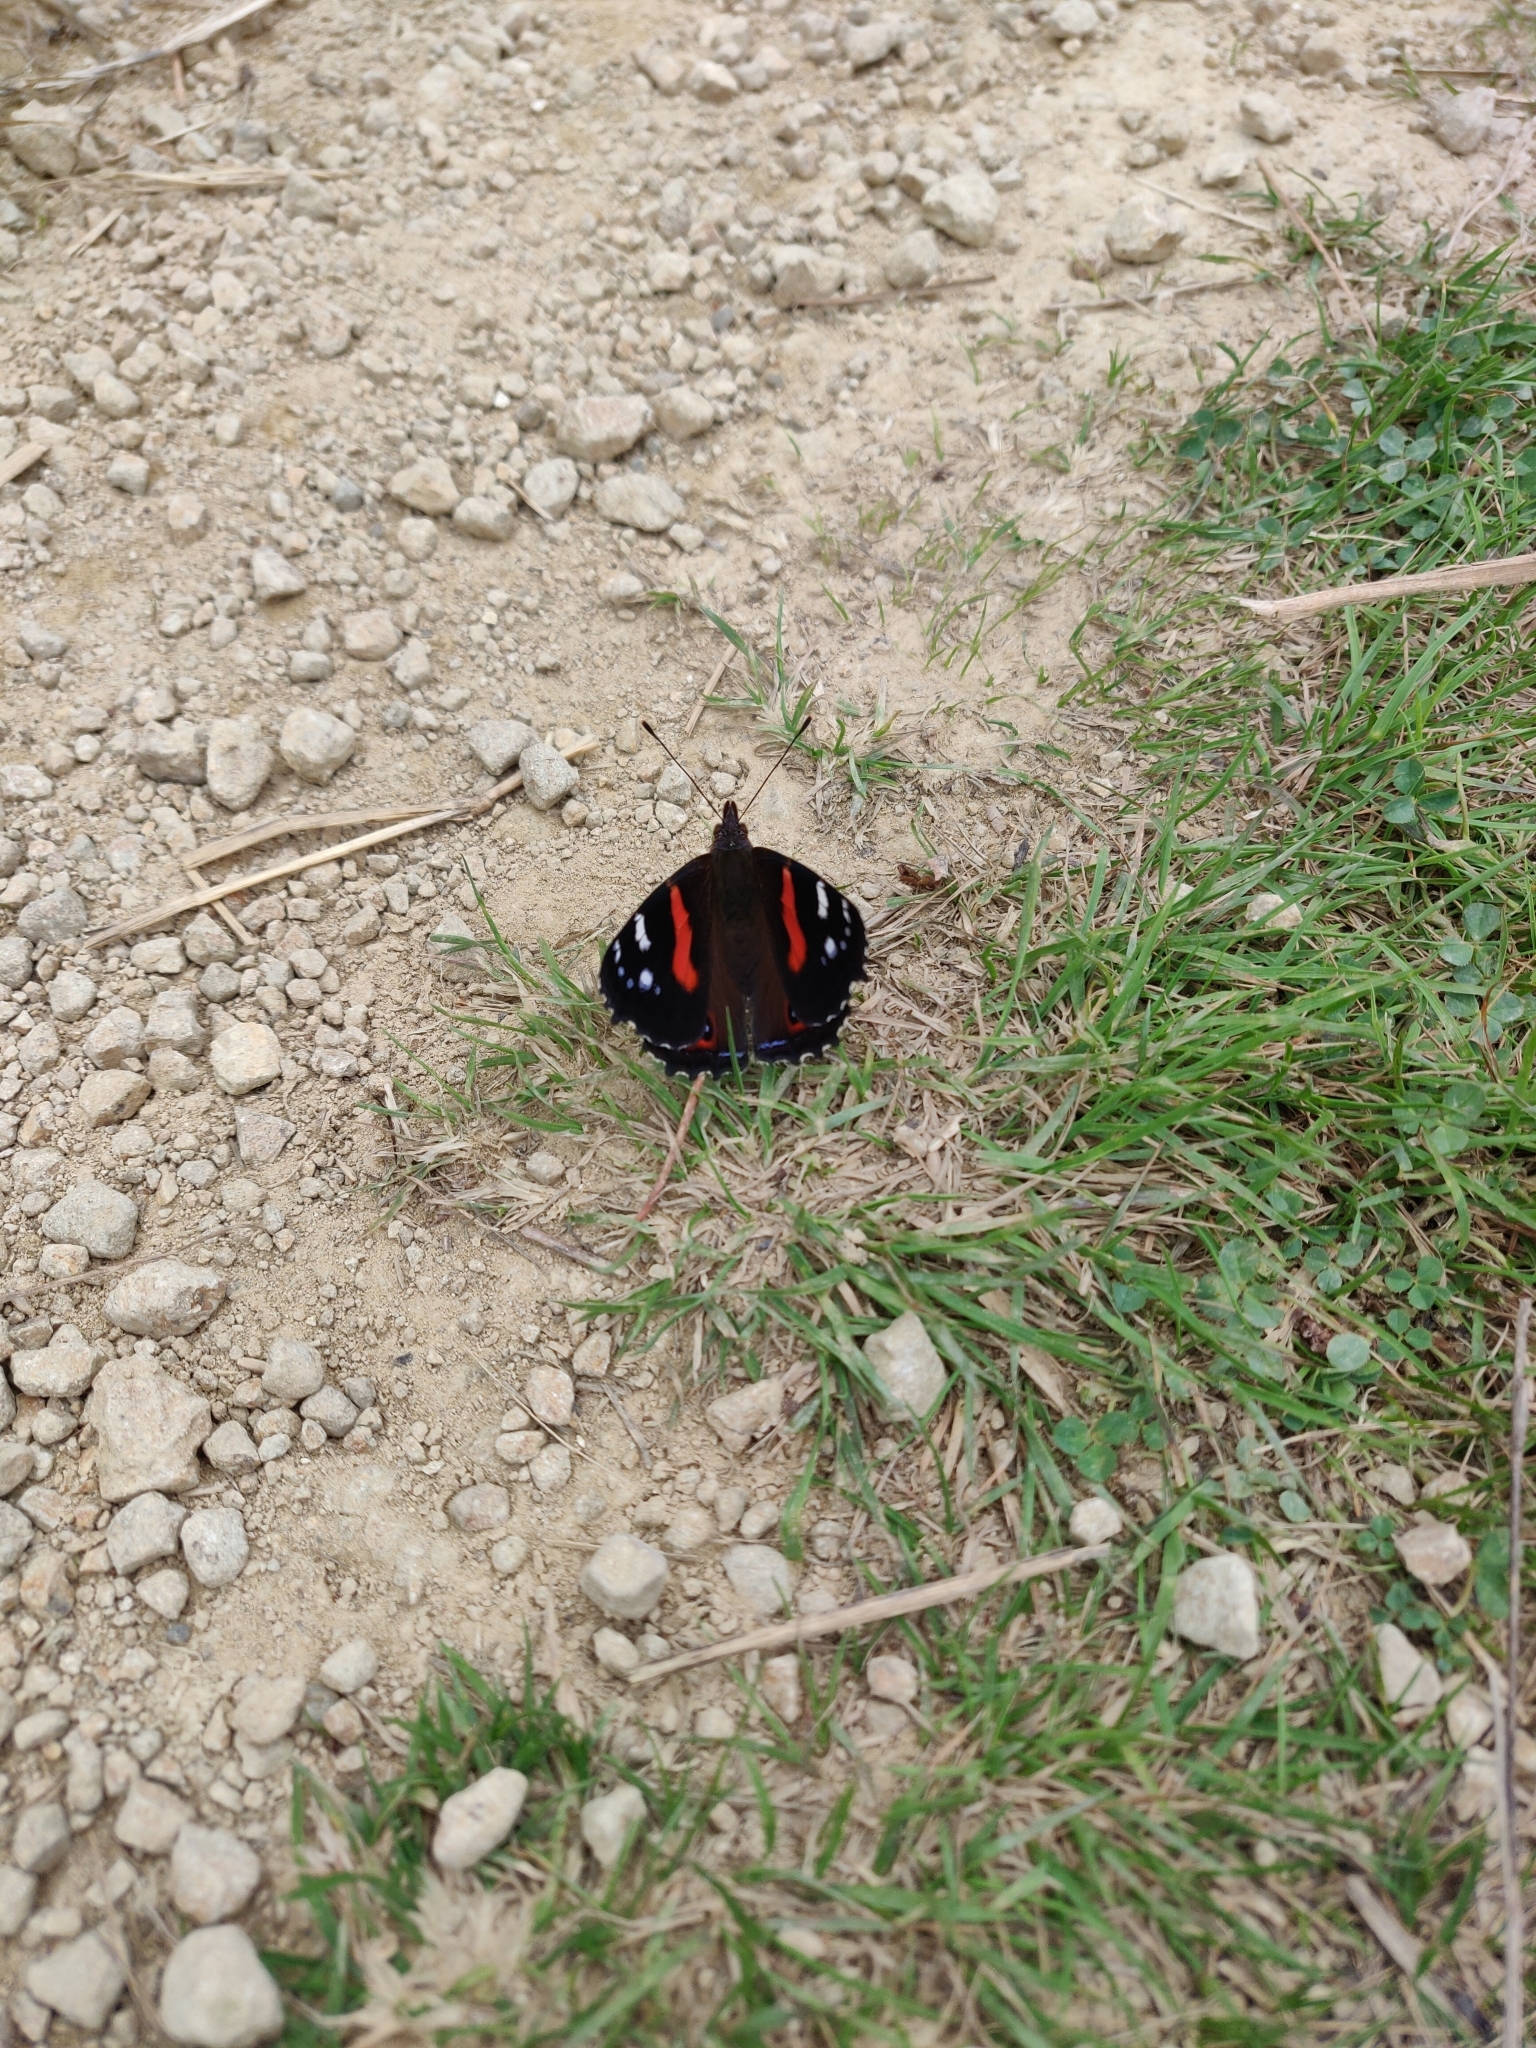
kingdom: Animalia
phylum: Arthropoda
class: Insecta
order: Lepidoptera
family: Nymphalidae
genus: Vanessa
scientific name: Vanessa gonerilla
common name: New zealand red admiral
